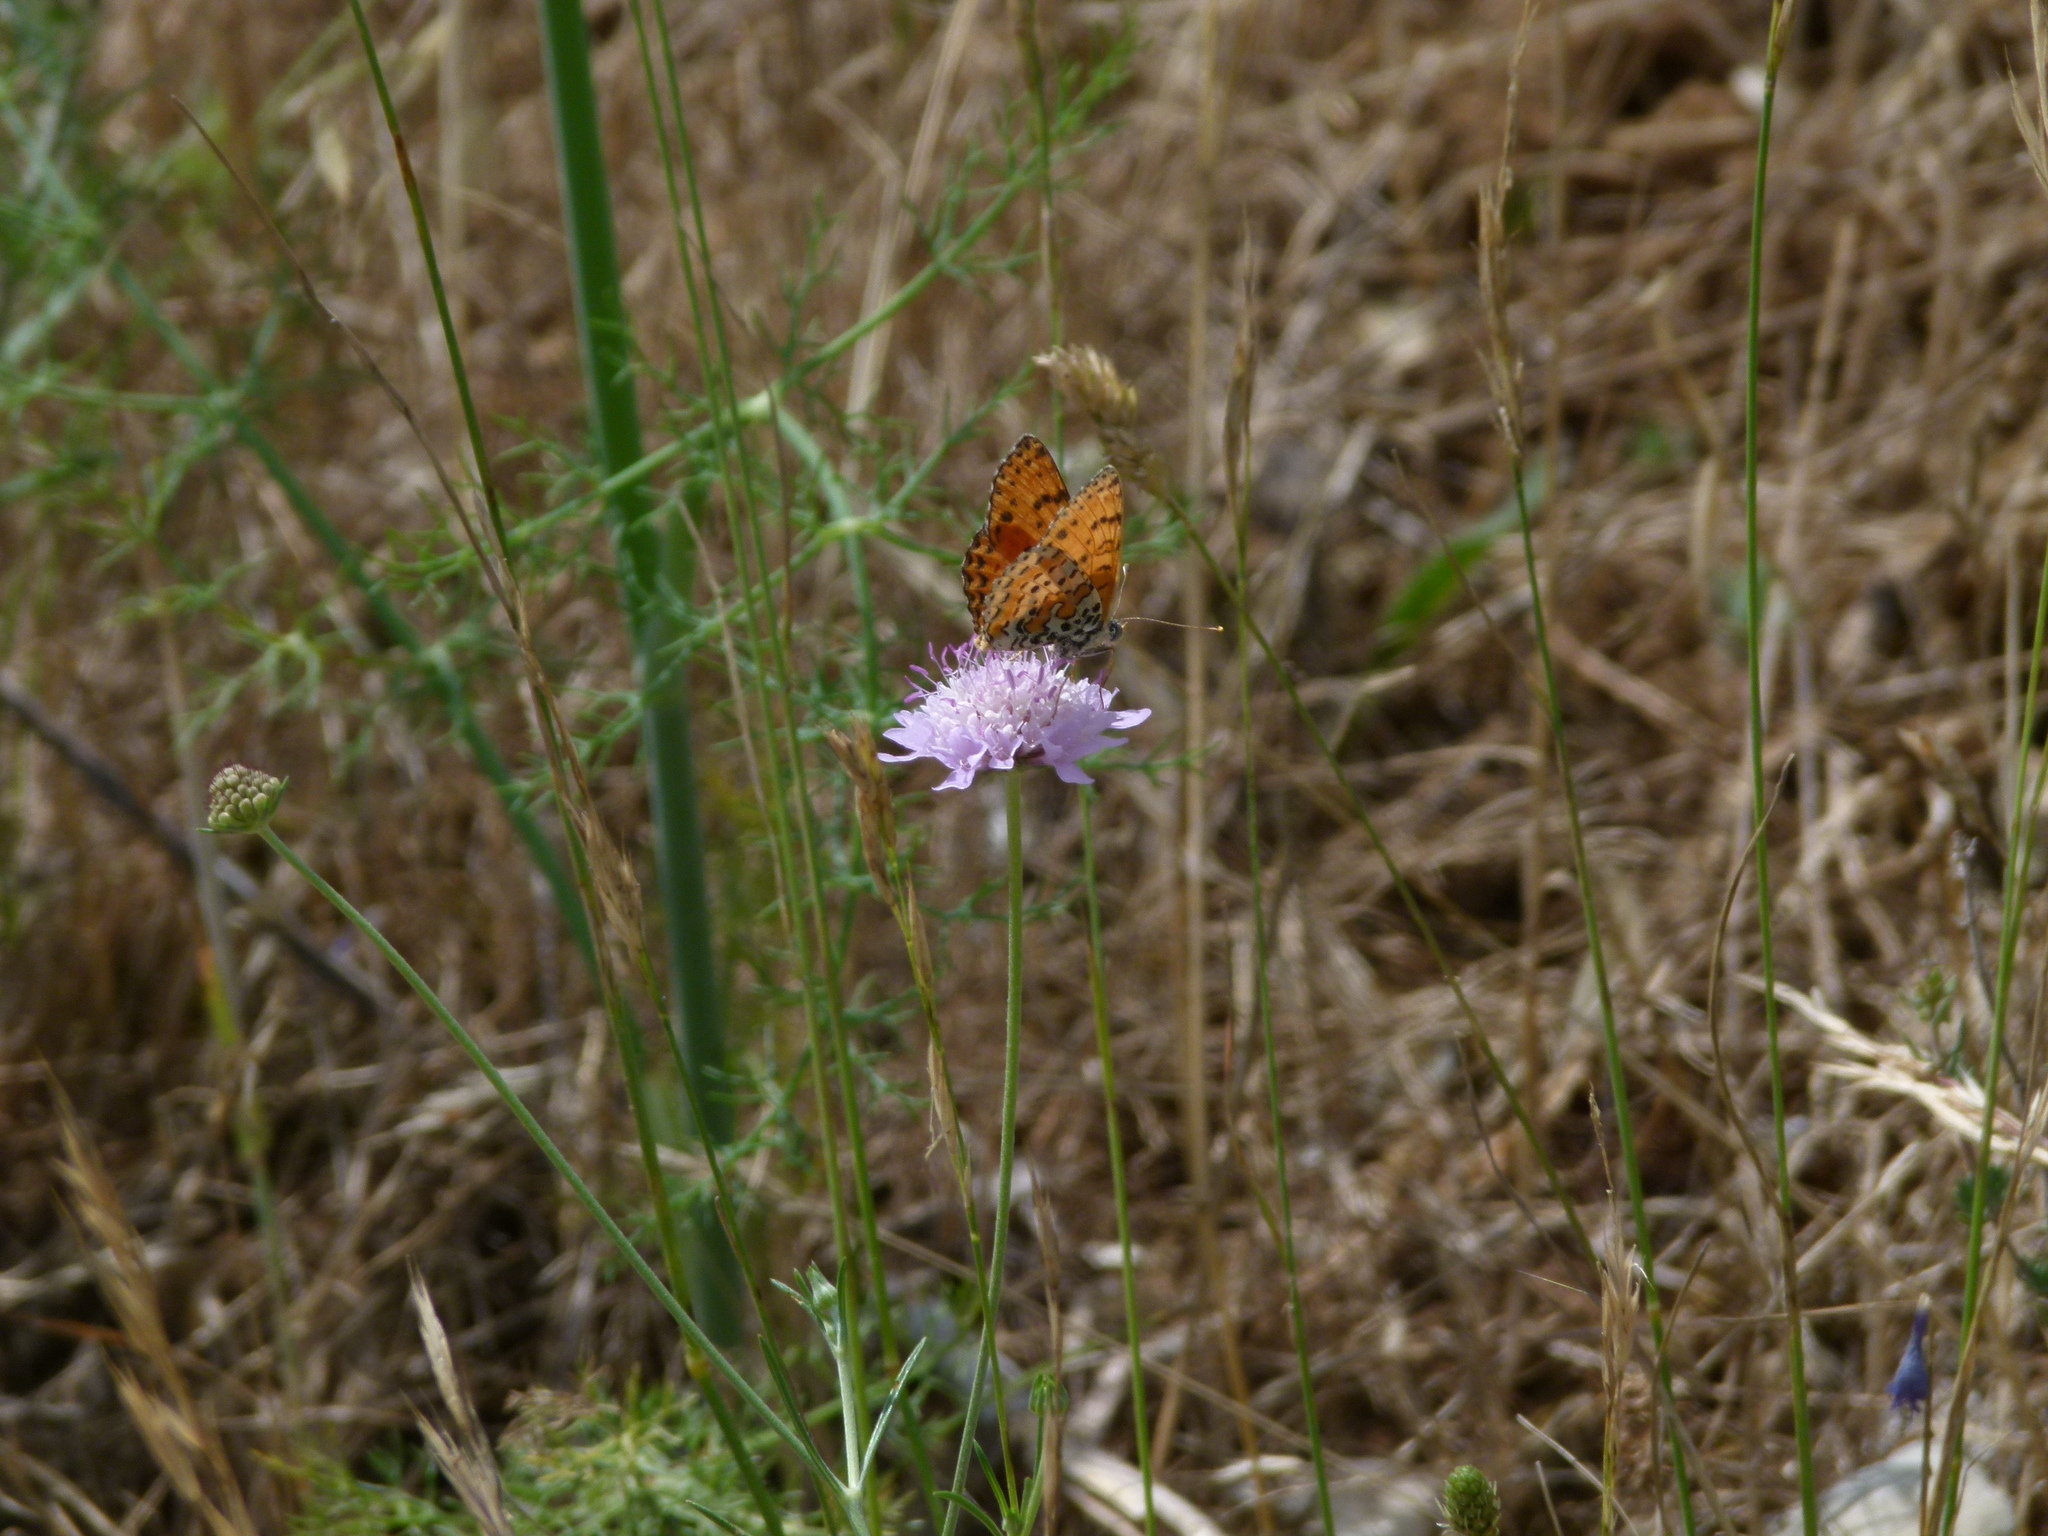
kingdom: Animalia
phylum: Arthropoda
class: Insecta
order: Lepidoptera
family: Nymphalidae
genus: Melitaea
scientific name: Melitaea didyma
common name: Spotted fritillary
